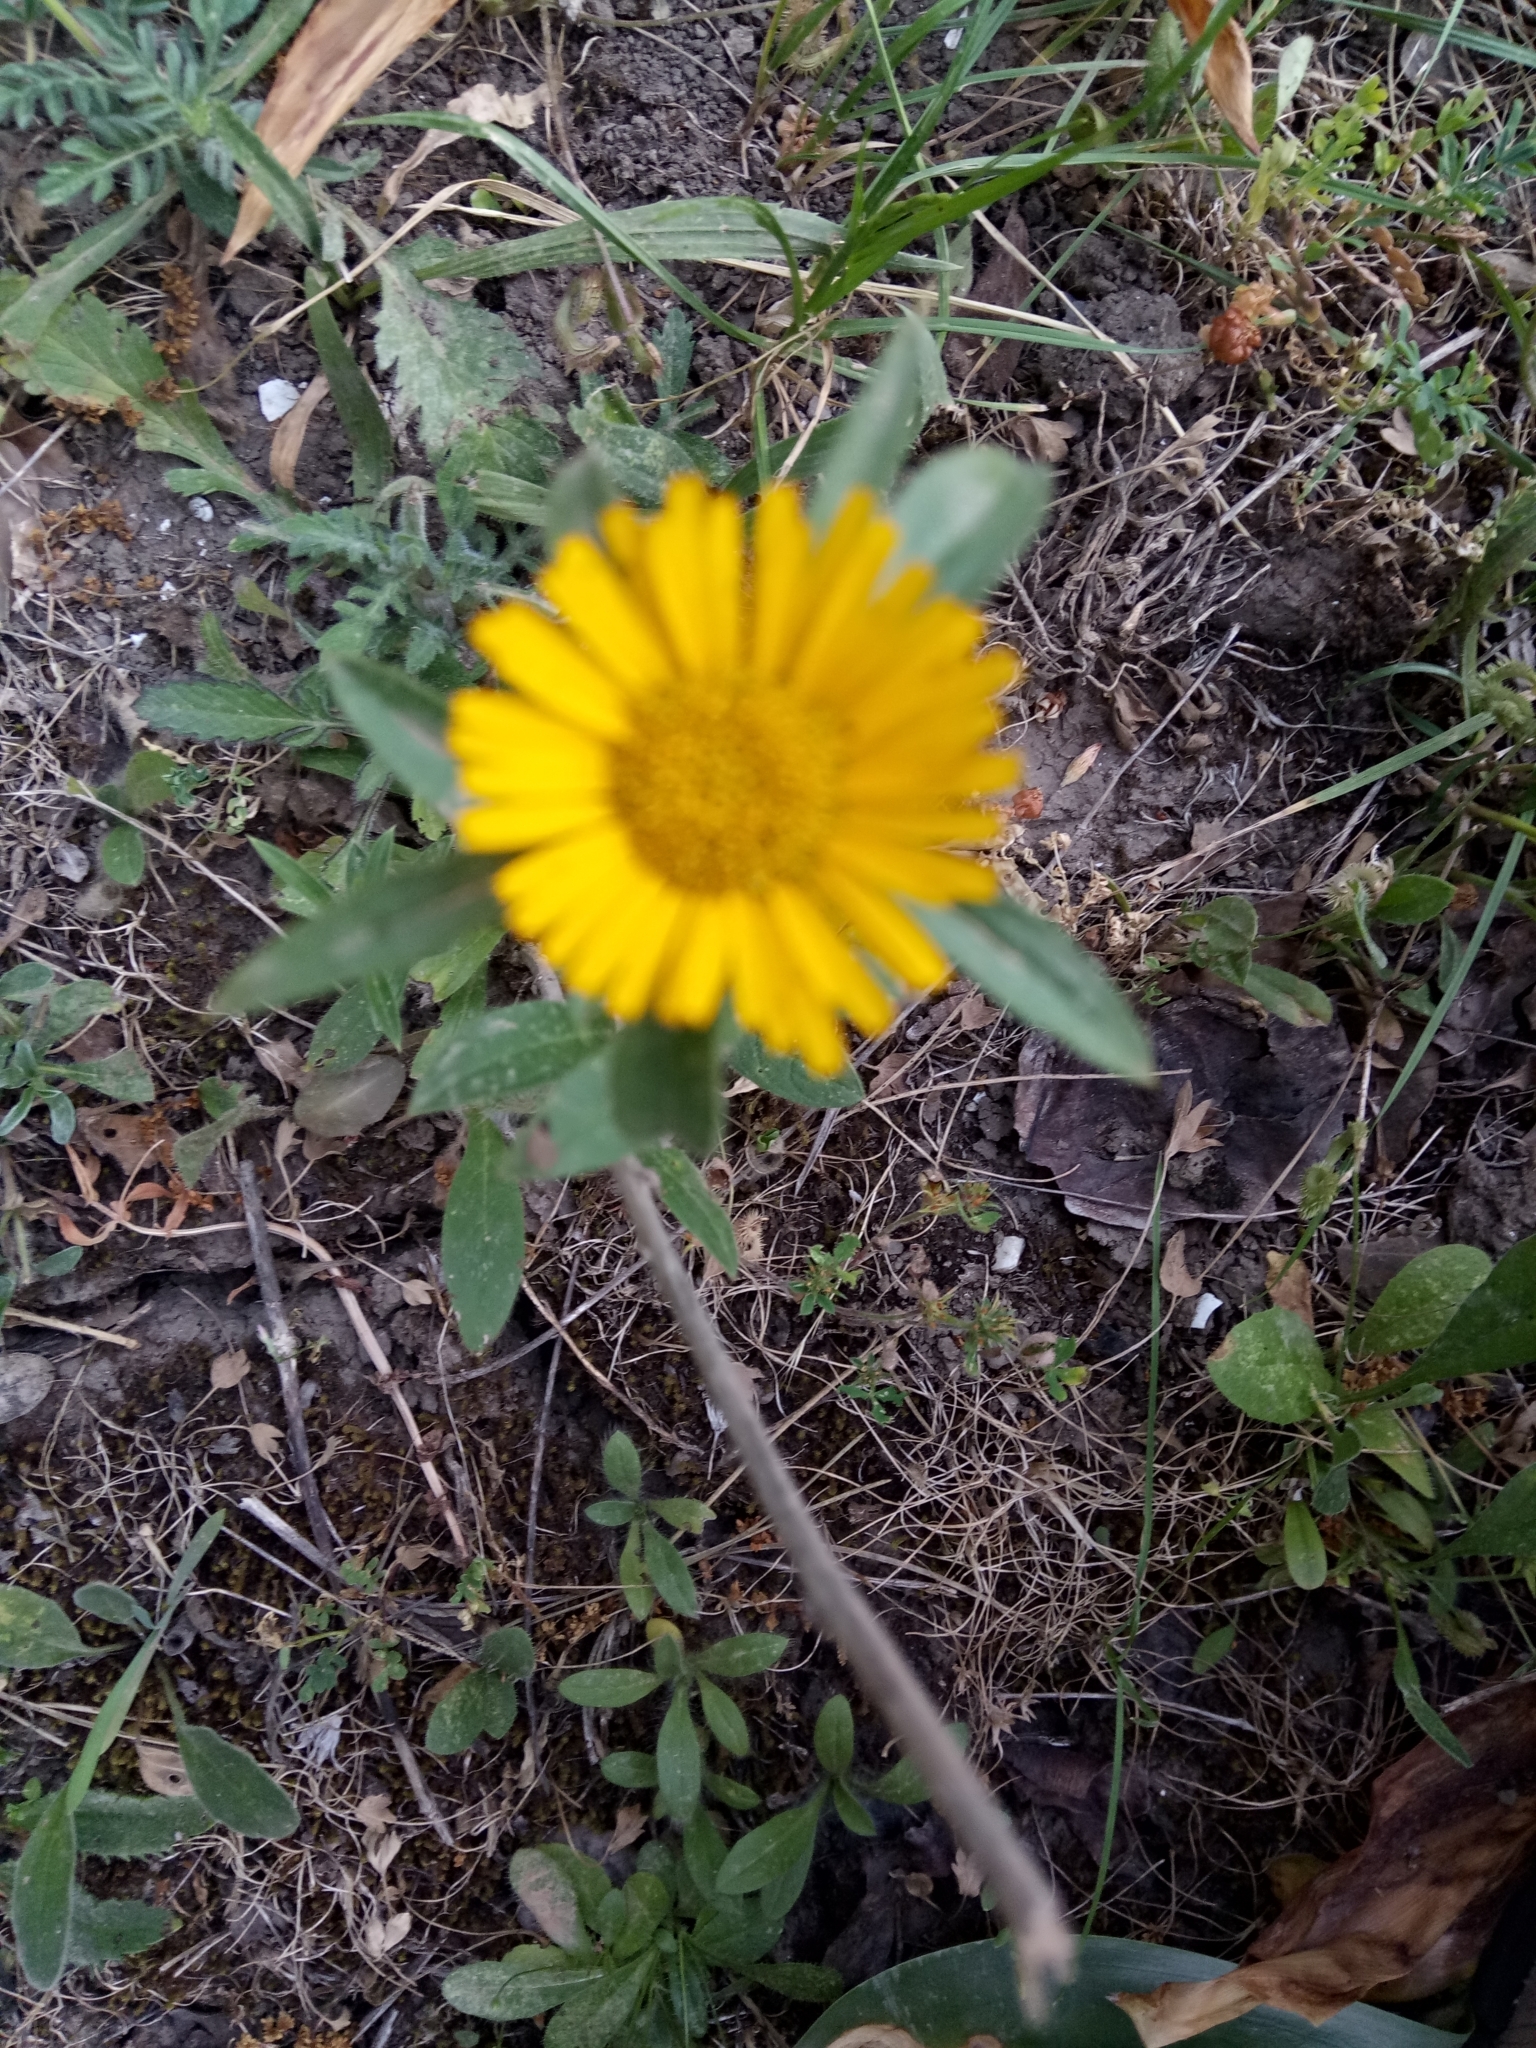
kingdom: Plantae
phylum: Tracheophyta
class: Magnoliopsida
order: Asterales
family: Asteraceae
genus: Pallenis
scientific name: Pallenis spinosa
